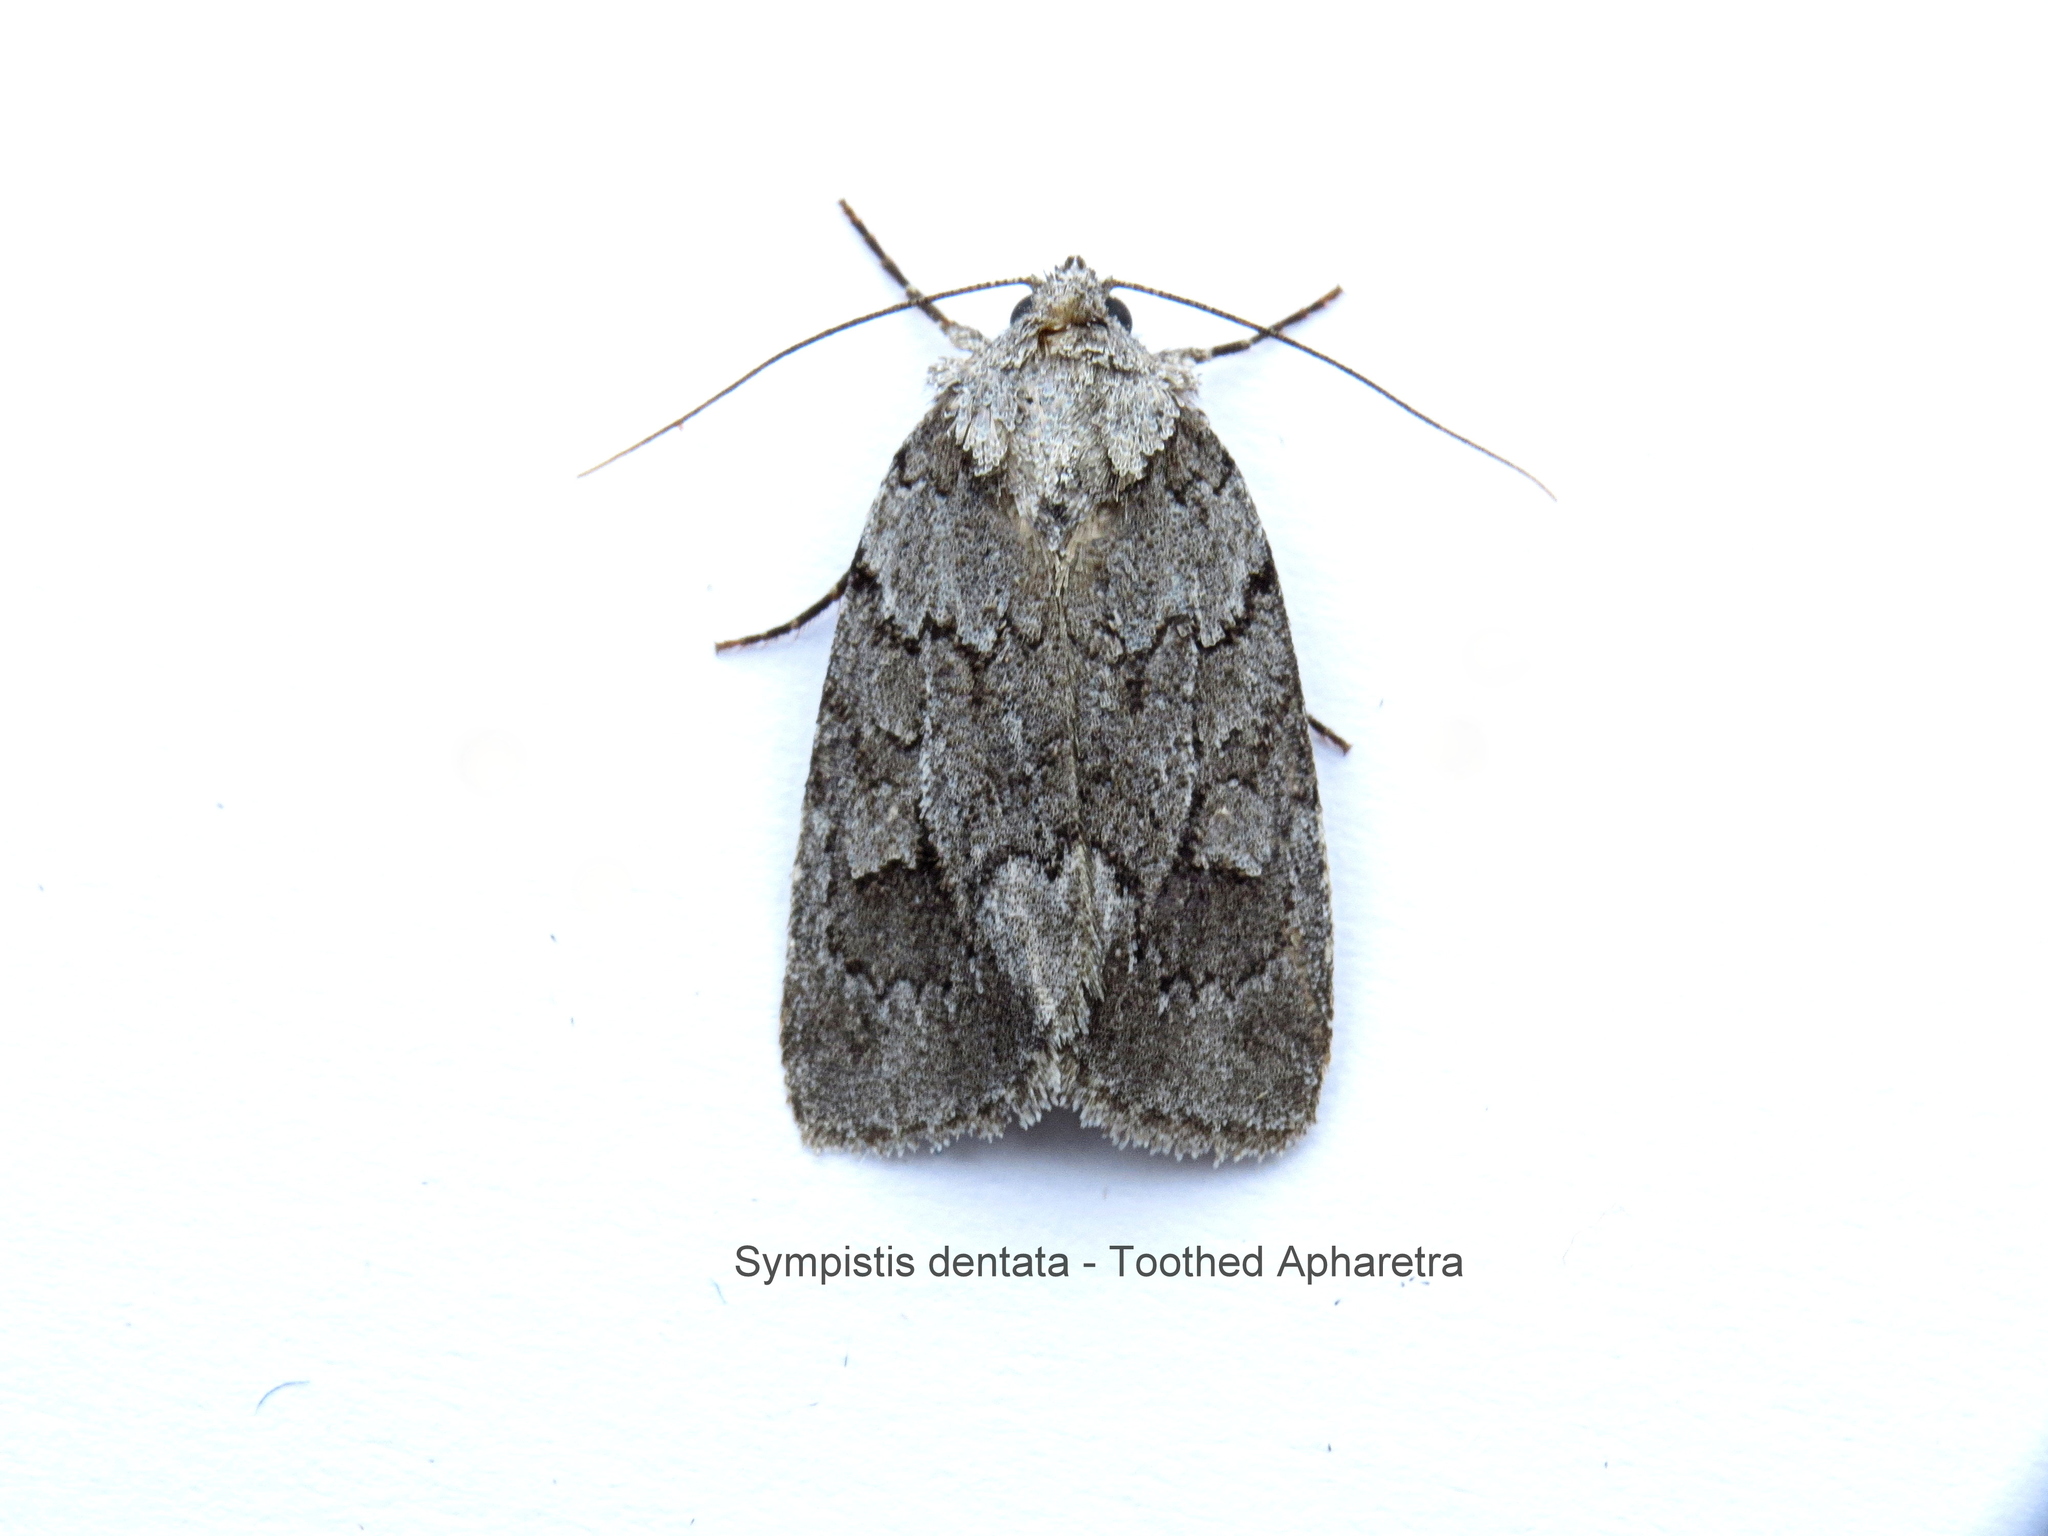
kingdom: Animalia
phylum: Arthropoda
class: Insecta
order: Lepidoptera
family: Noctuidae
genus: Sympistis
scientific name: Sympistis dentata
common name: Blueberry sallow
